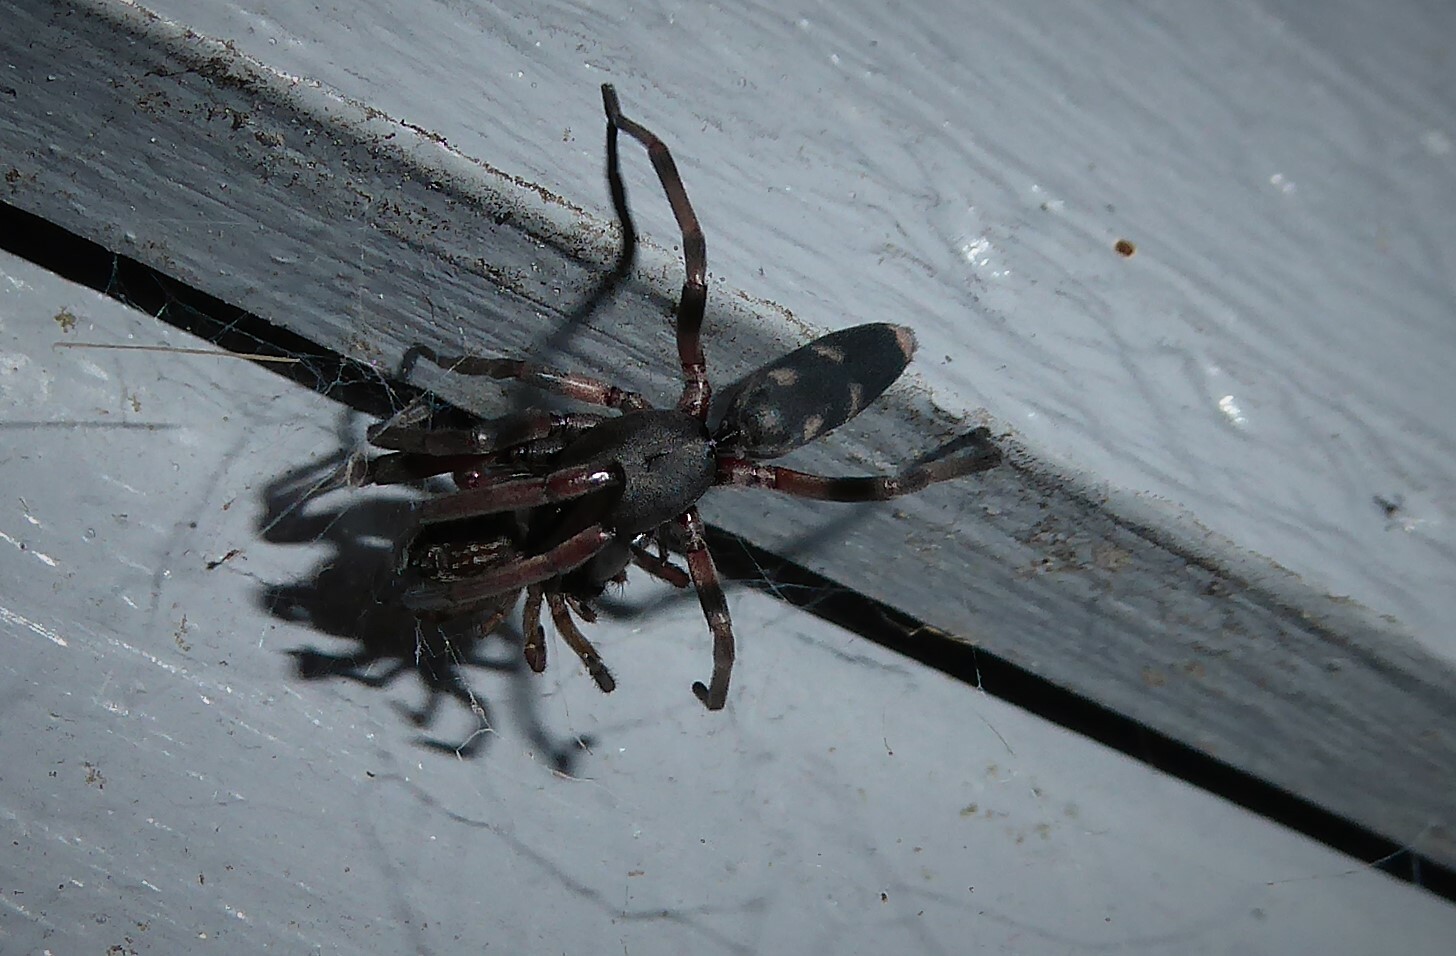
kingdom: Animalia
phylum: Arthropoda
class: Arachnida
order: Araneae
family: Lamponidae
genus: Lampona
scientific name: Lampona cylindrata
